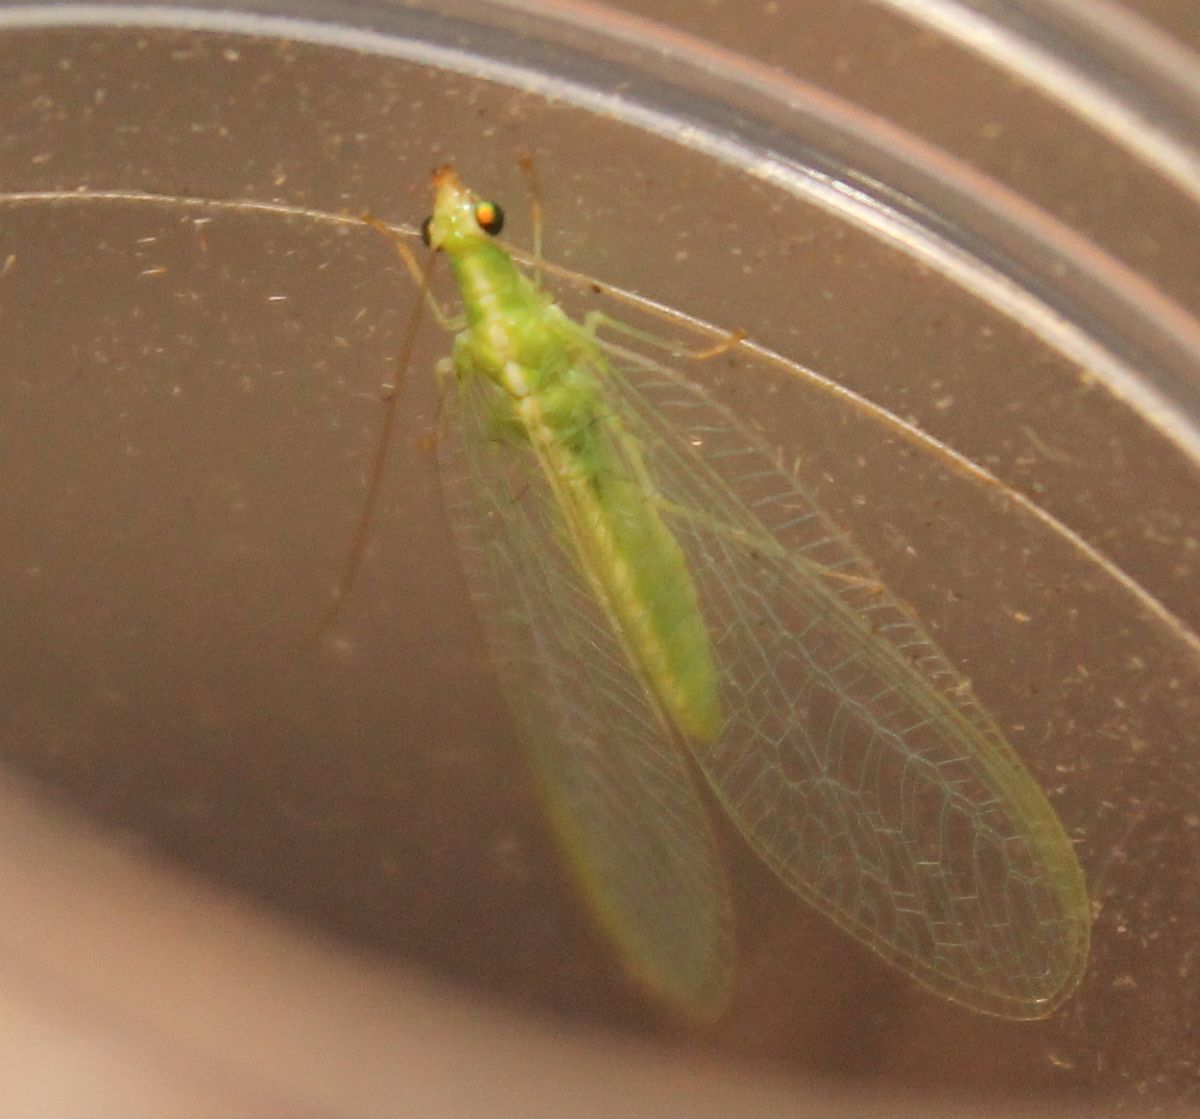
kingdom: Animalia
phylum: Arthropoda
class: Insecta
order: Neuroptera
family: Chrysopidae
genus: Chrysoperla
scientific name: Chrysoperla
